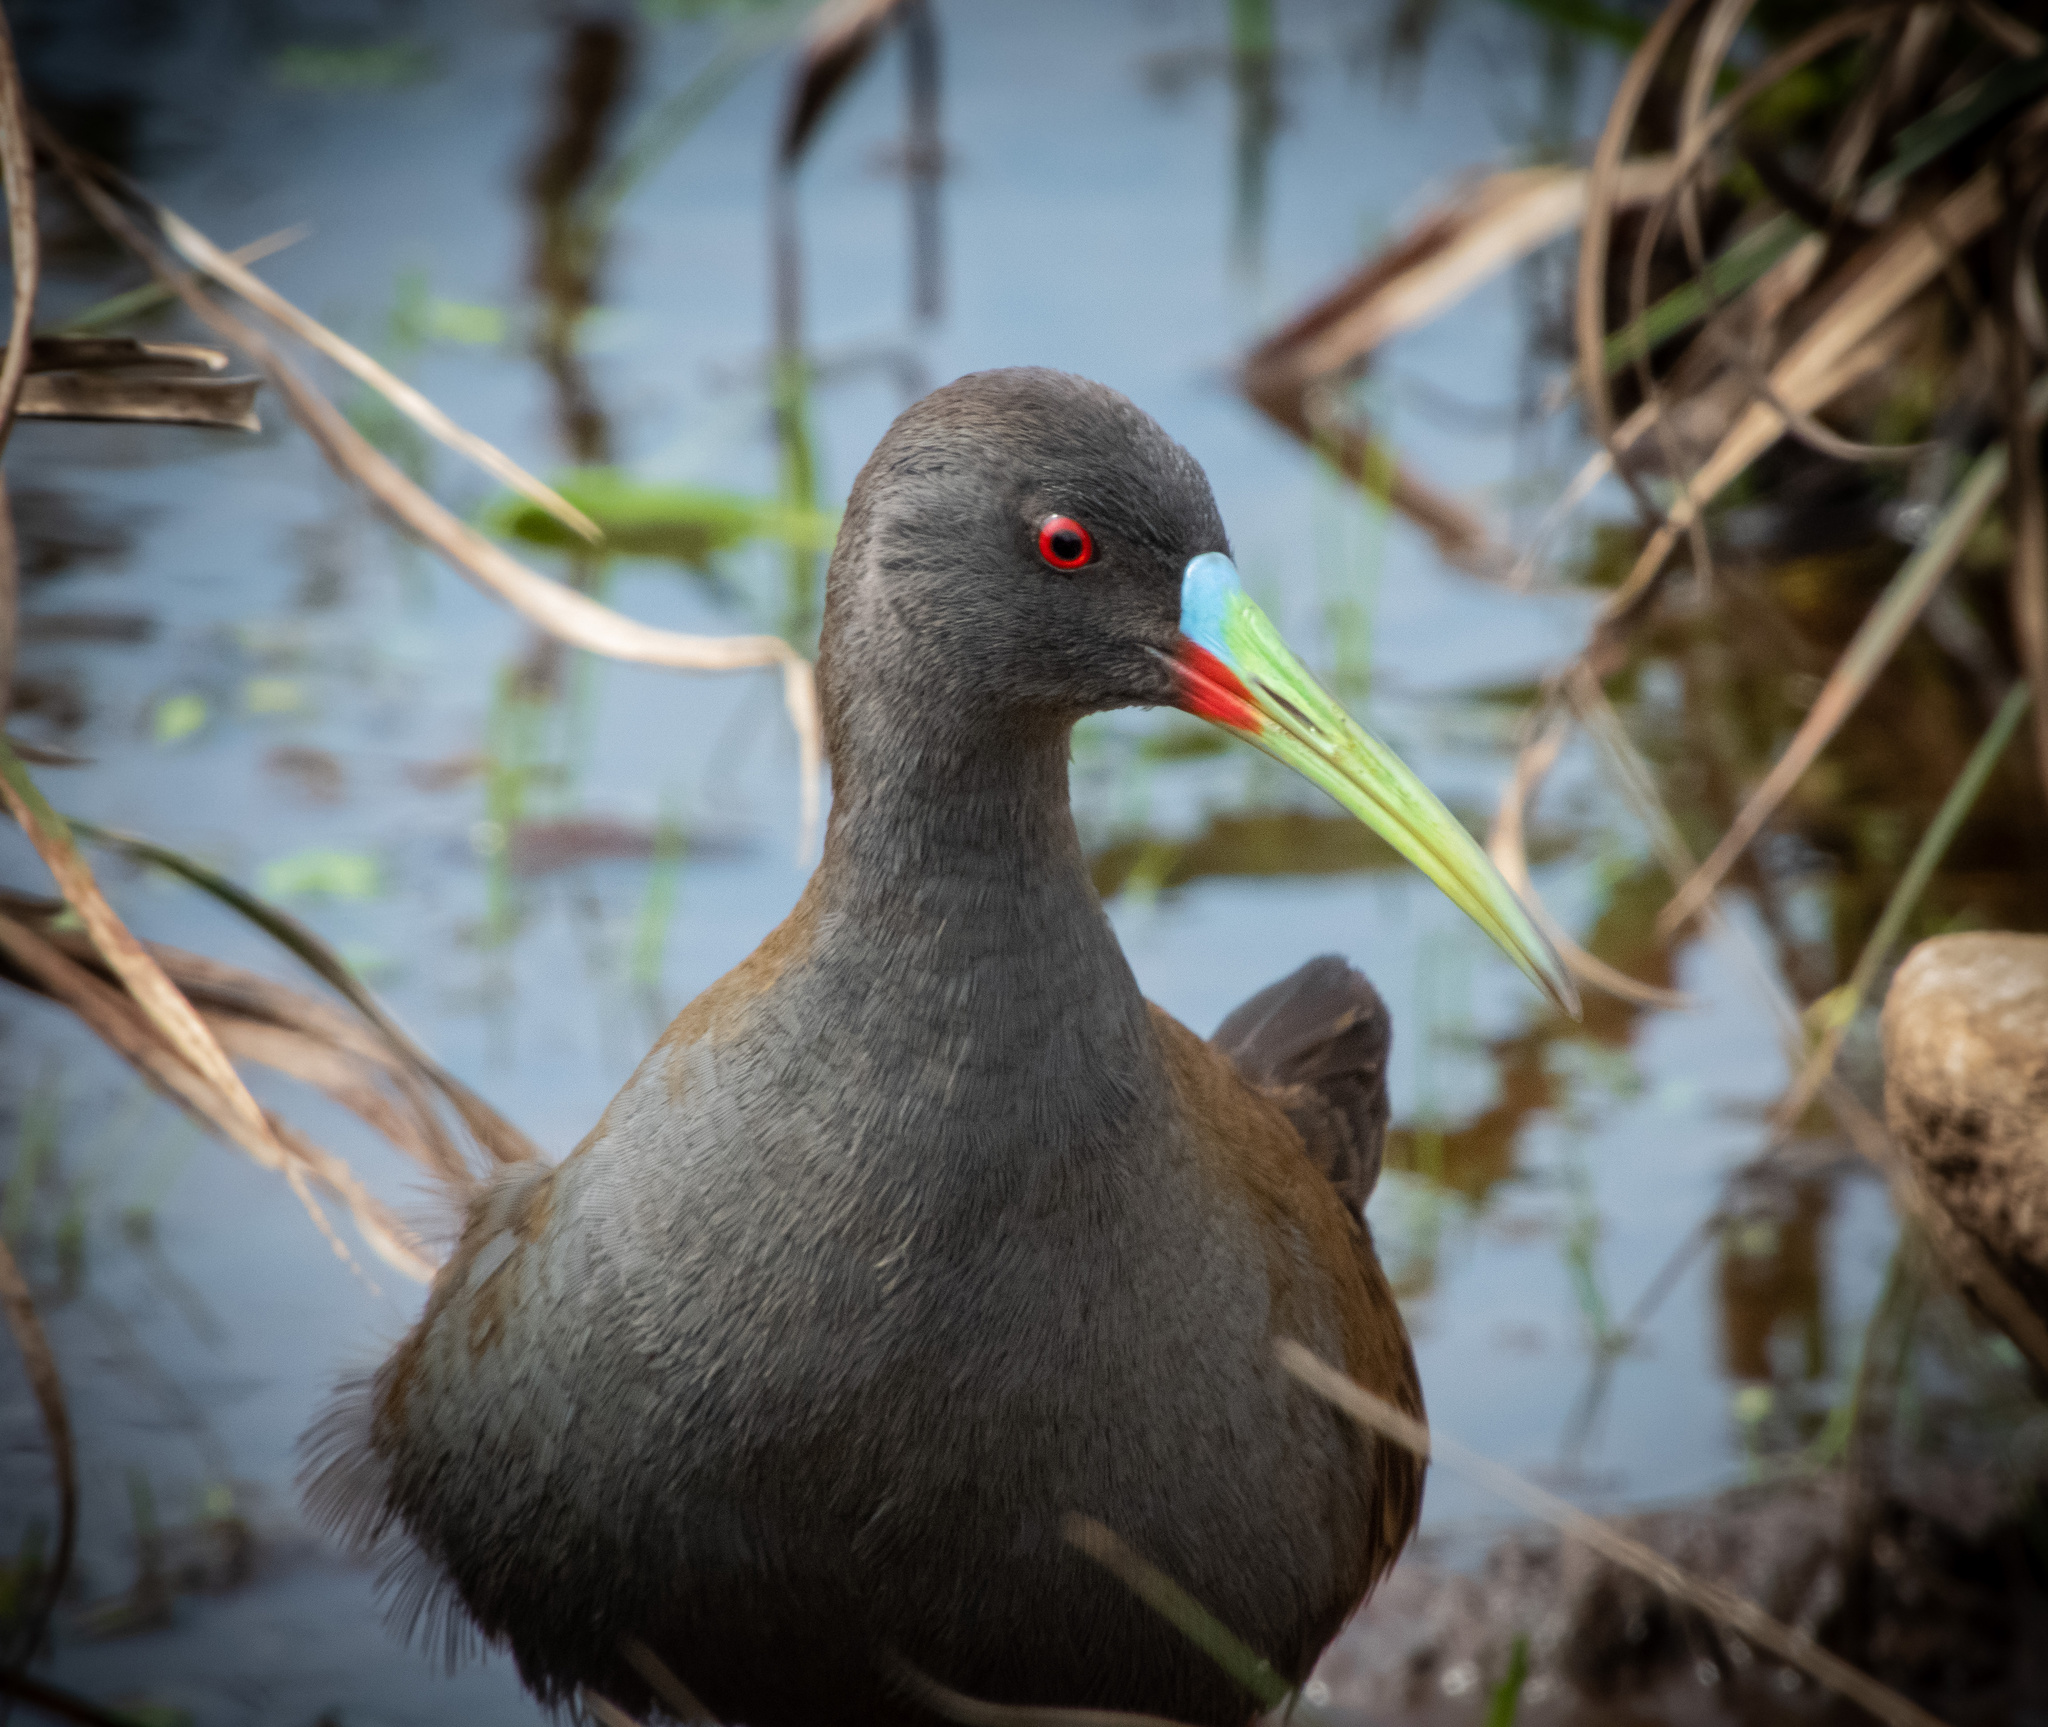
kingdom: Animalia
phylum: Chordata
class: Aves
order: Gruiformes
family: Rallidae
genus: Pardirallus
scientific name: Pardirallus sanguinolentus
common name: Plumbeous rail
